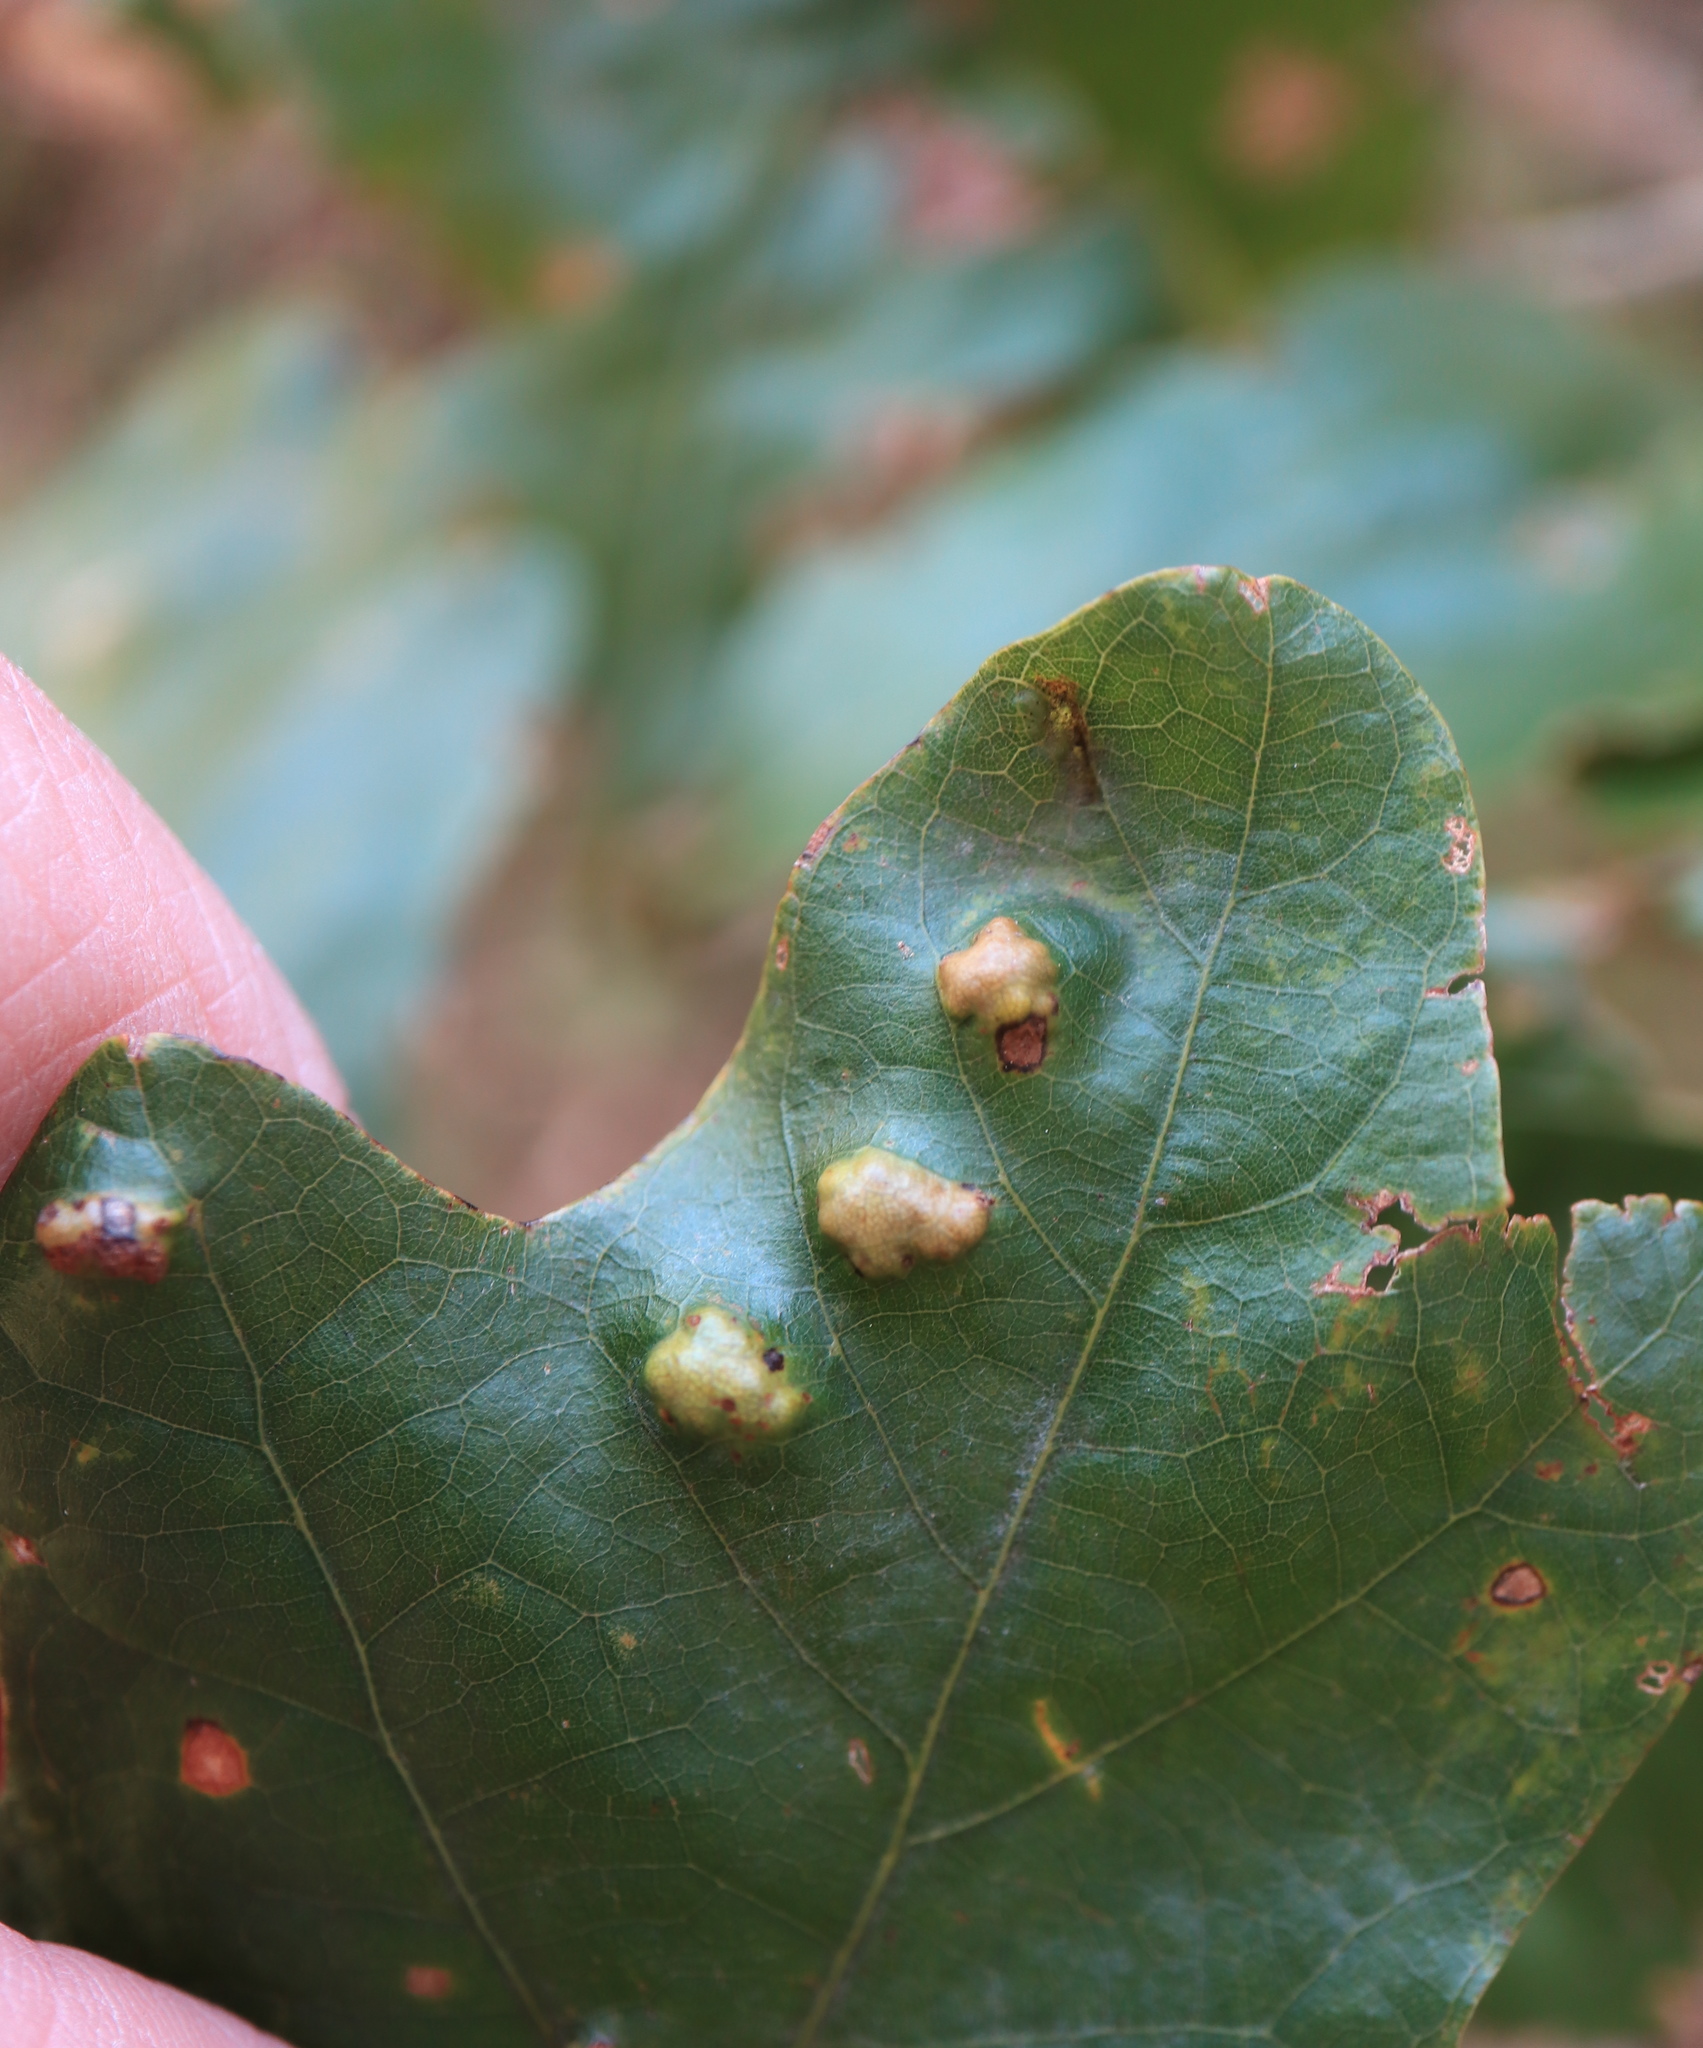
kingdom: Animalia
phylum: Arthropoda
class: Arachnida
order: Trombidiformes
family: Eriophyidae
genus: Aceria
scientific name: Aceria
